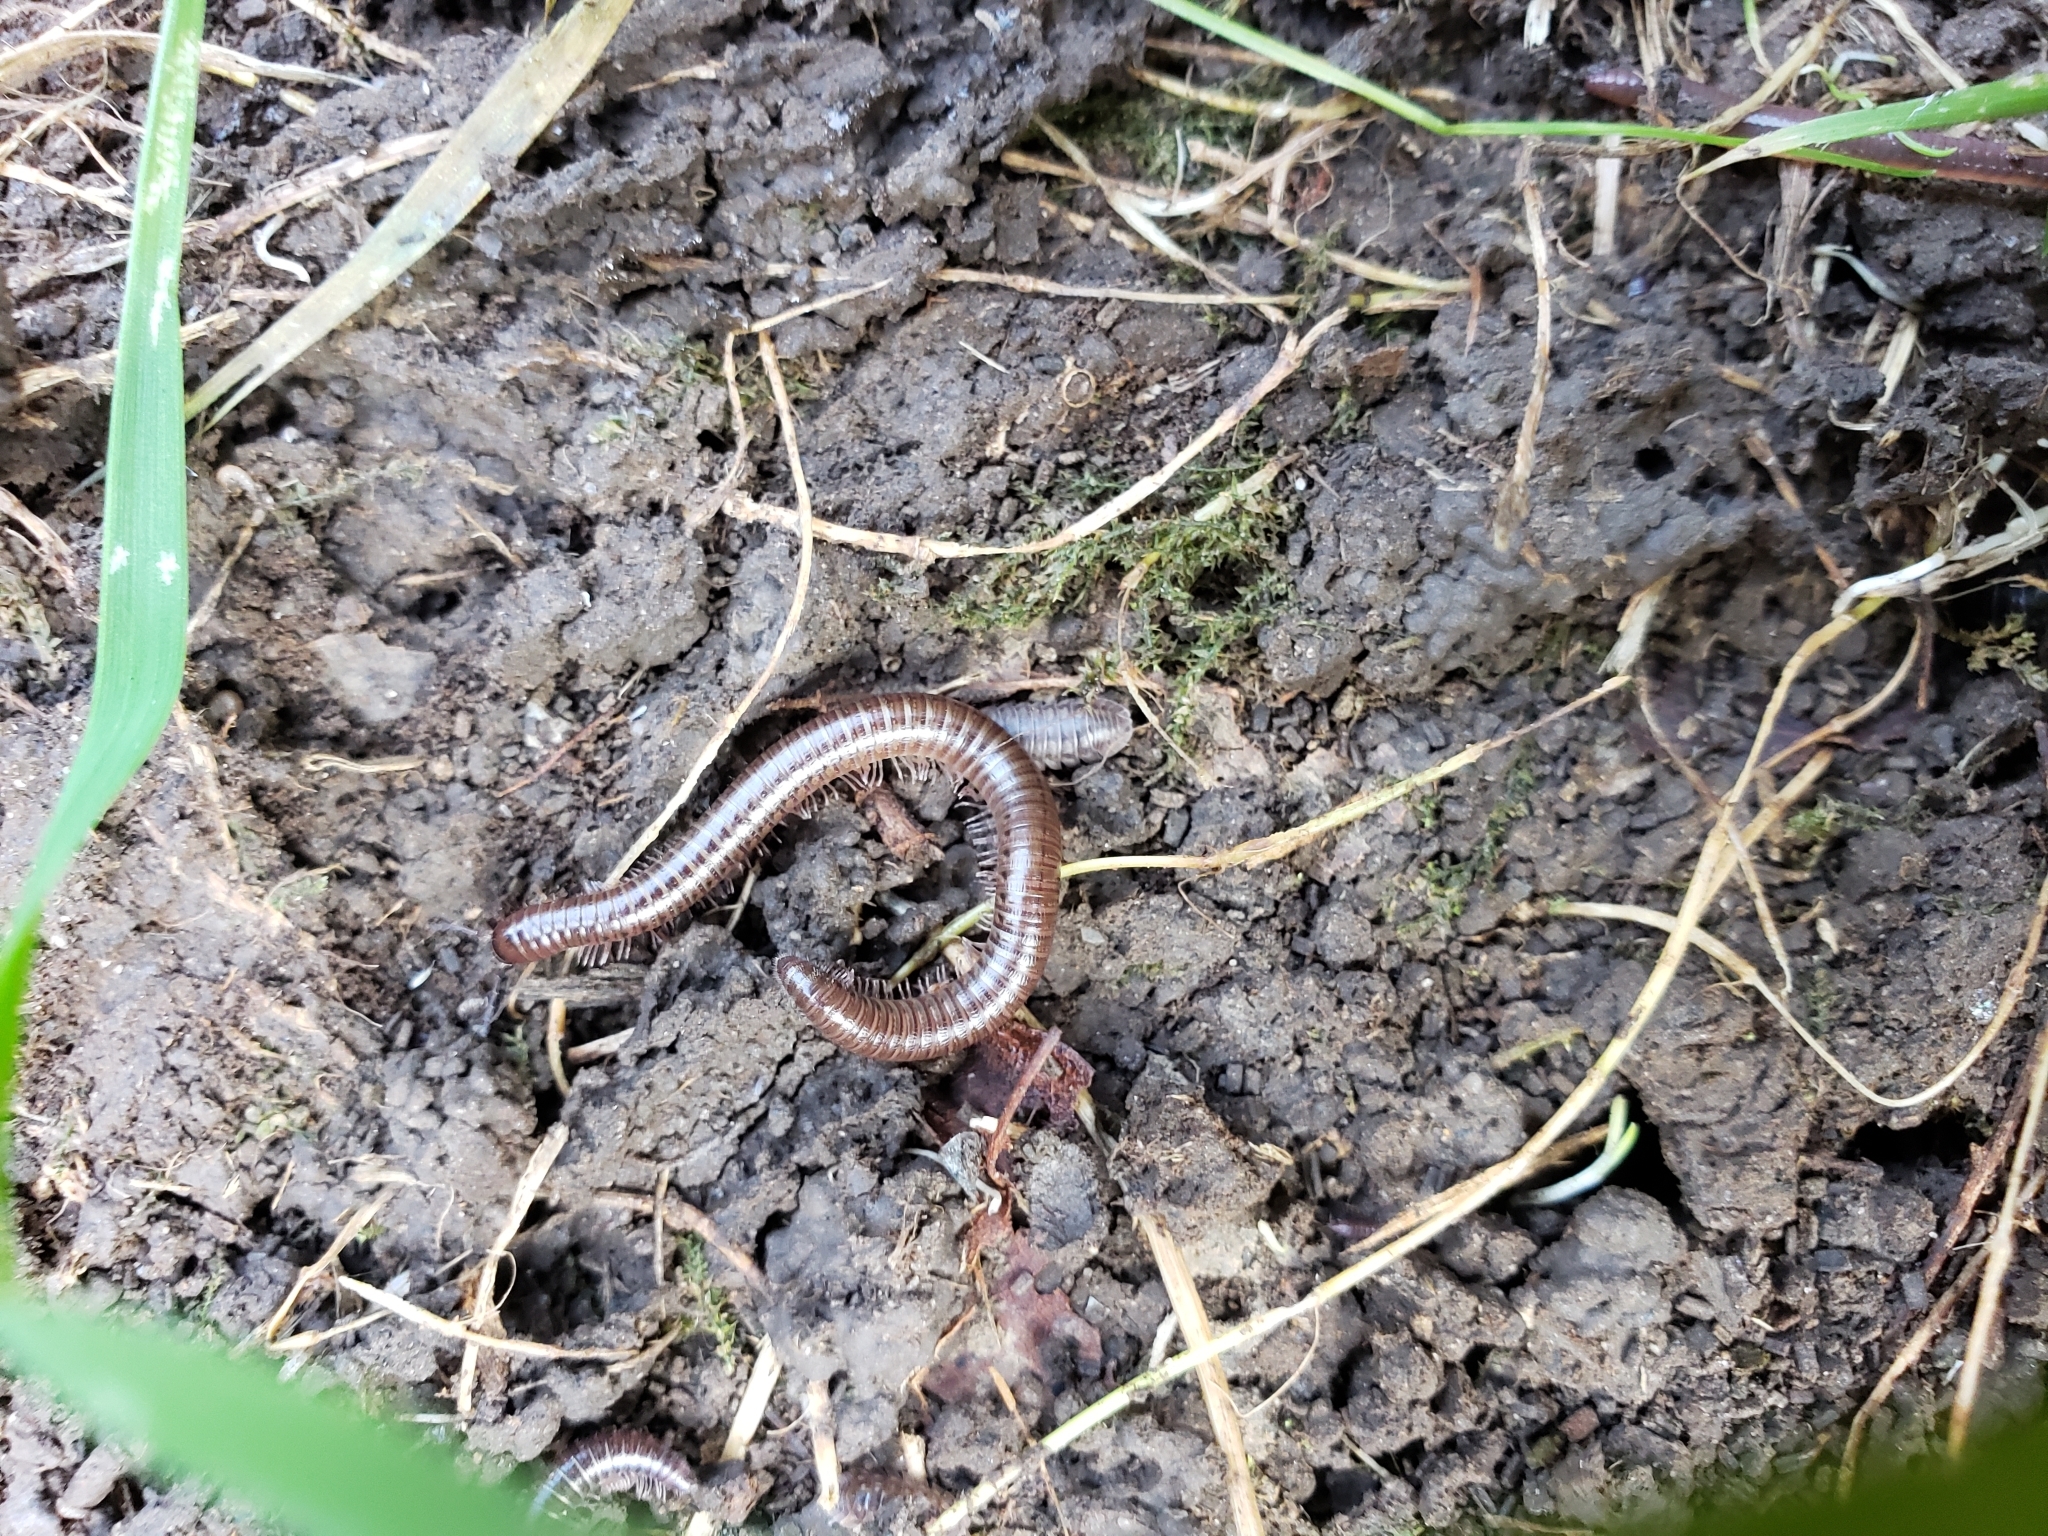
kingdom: Animalia
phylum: Arthropoda
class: Diplopoda
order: Julida
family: Parajulidae
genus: Ptyoiulus
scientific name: Ptyoiulus impressus
